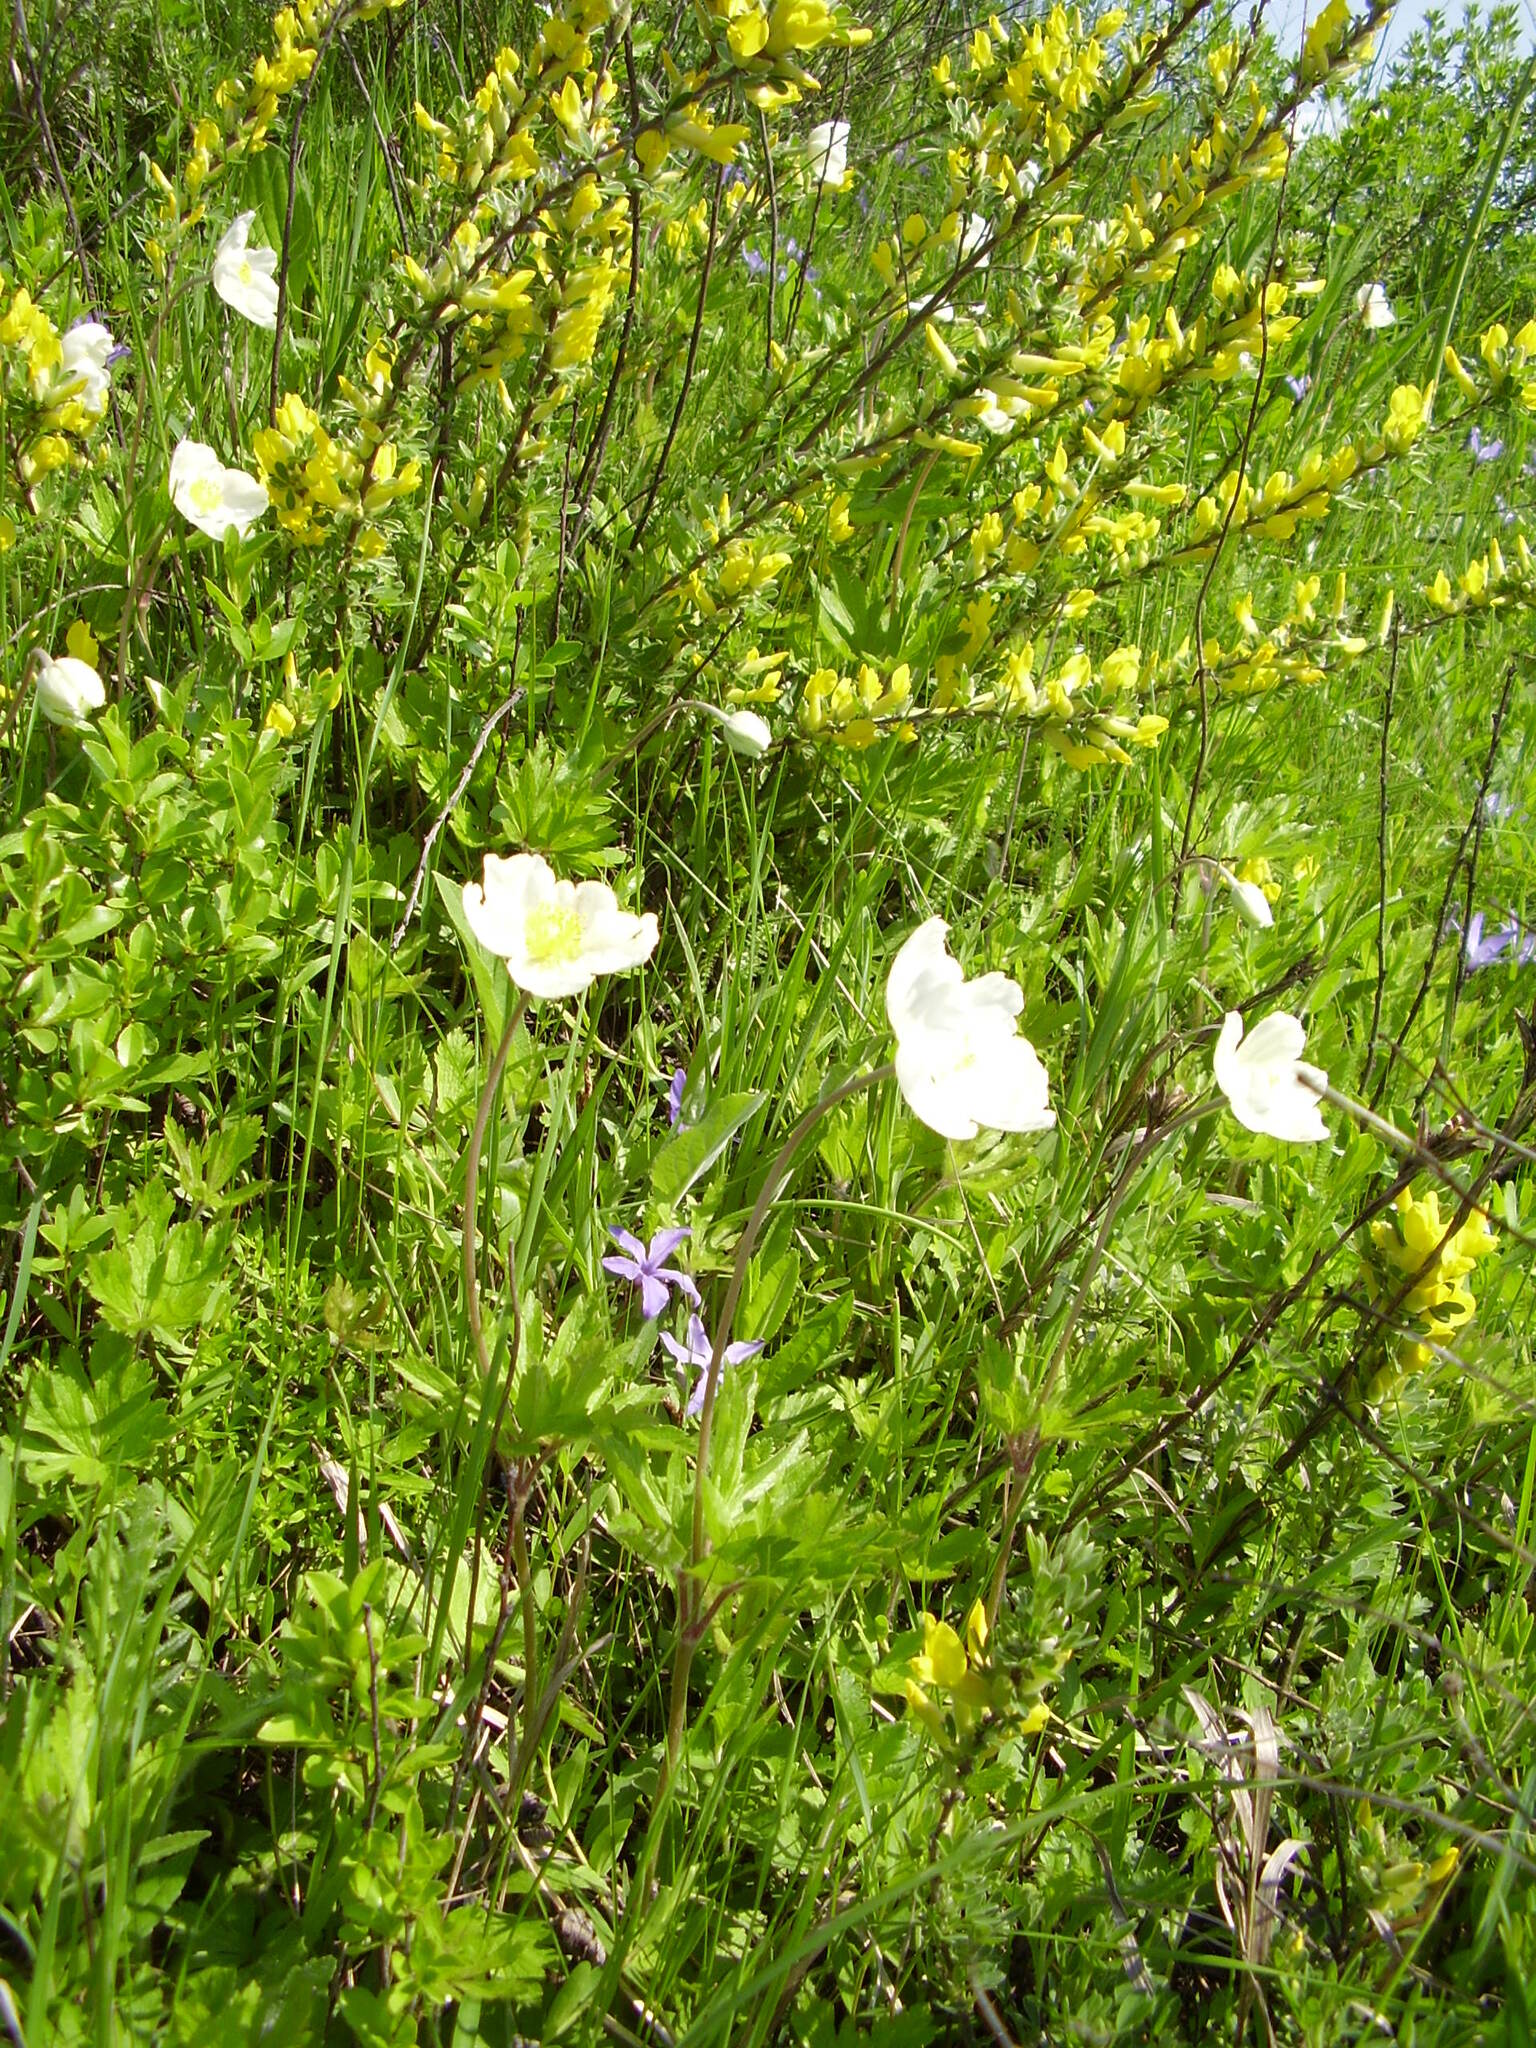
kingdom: Plantae
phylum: Tracheophyta
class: Magnoliopsida
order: Ranunculales
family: Ranunculaceae
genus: Anemone
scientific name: Anemone sylvestris
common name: Snowdrop anemone
